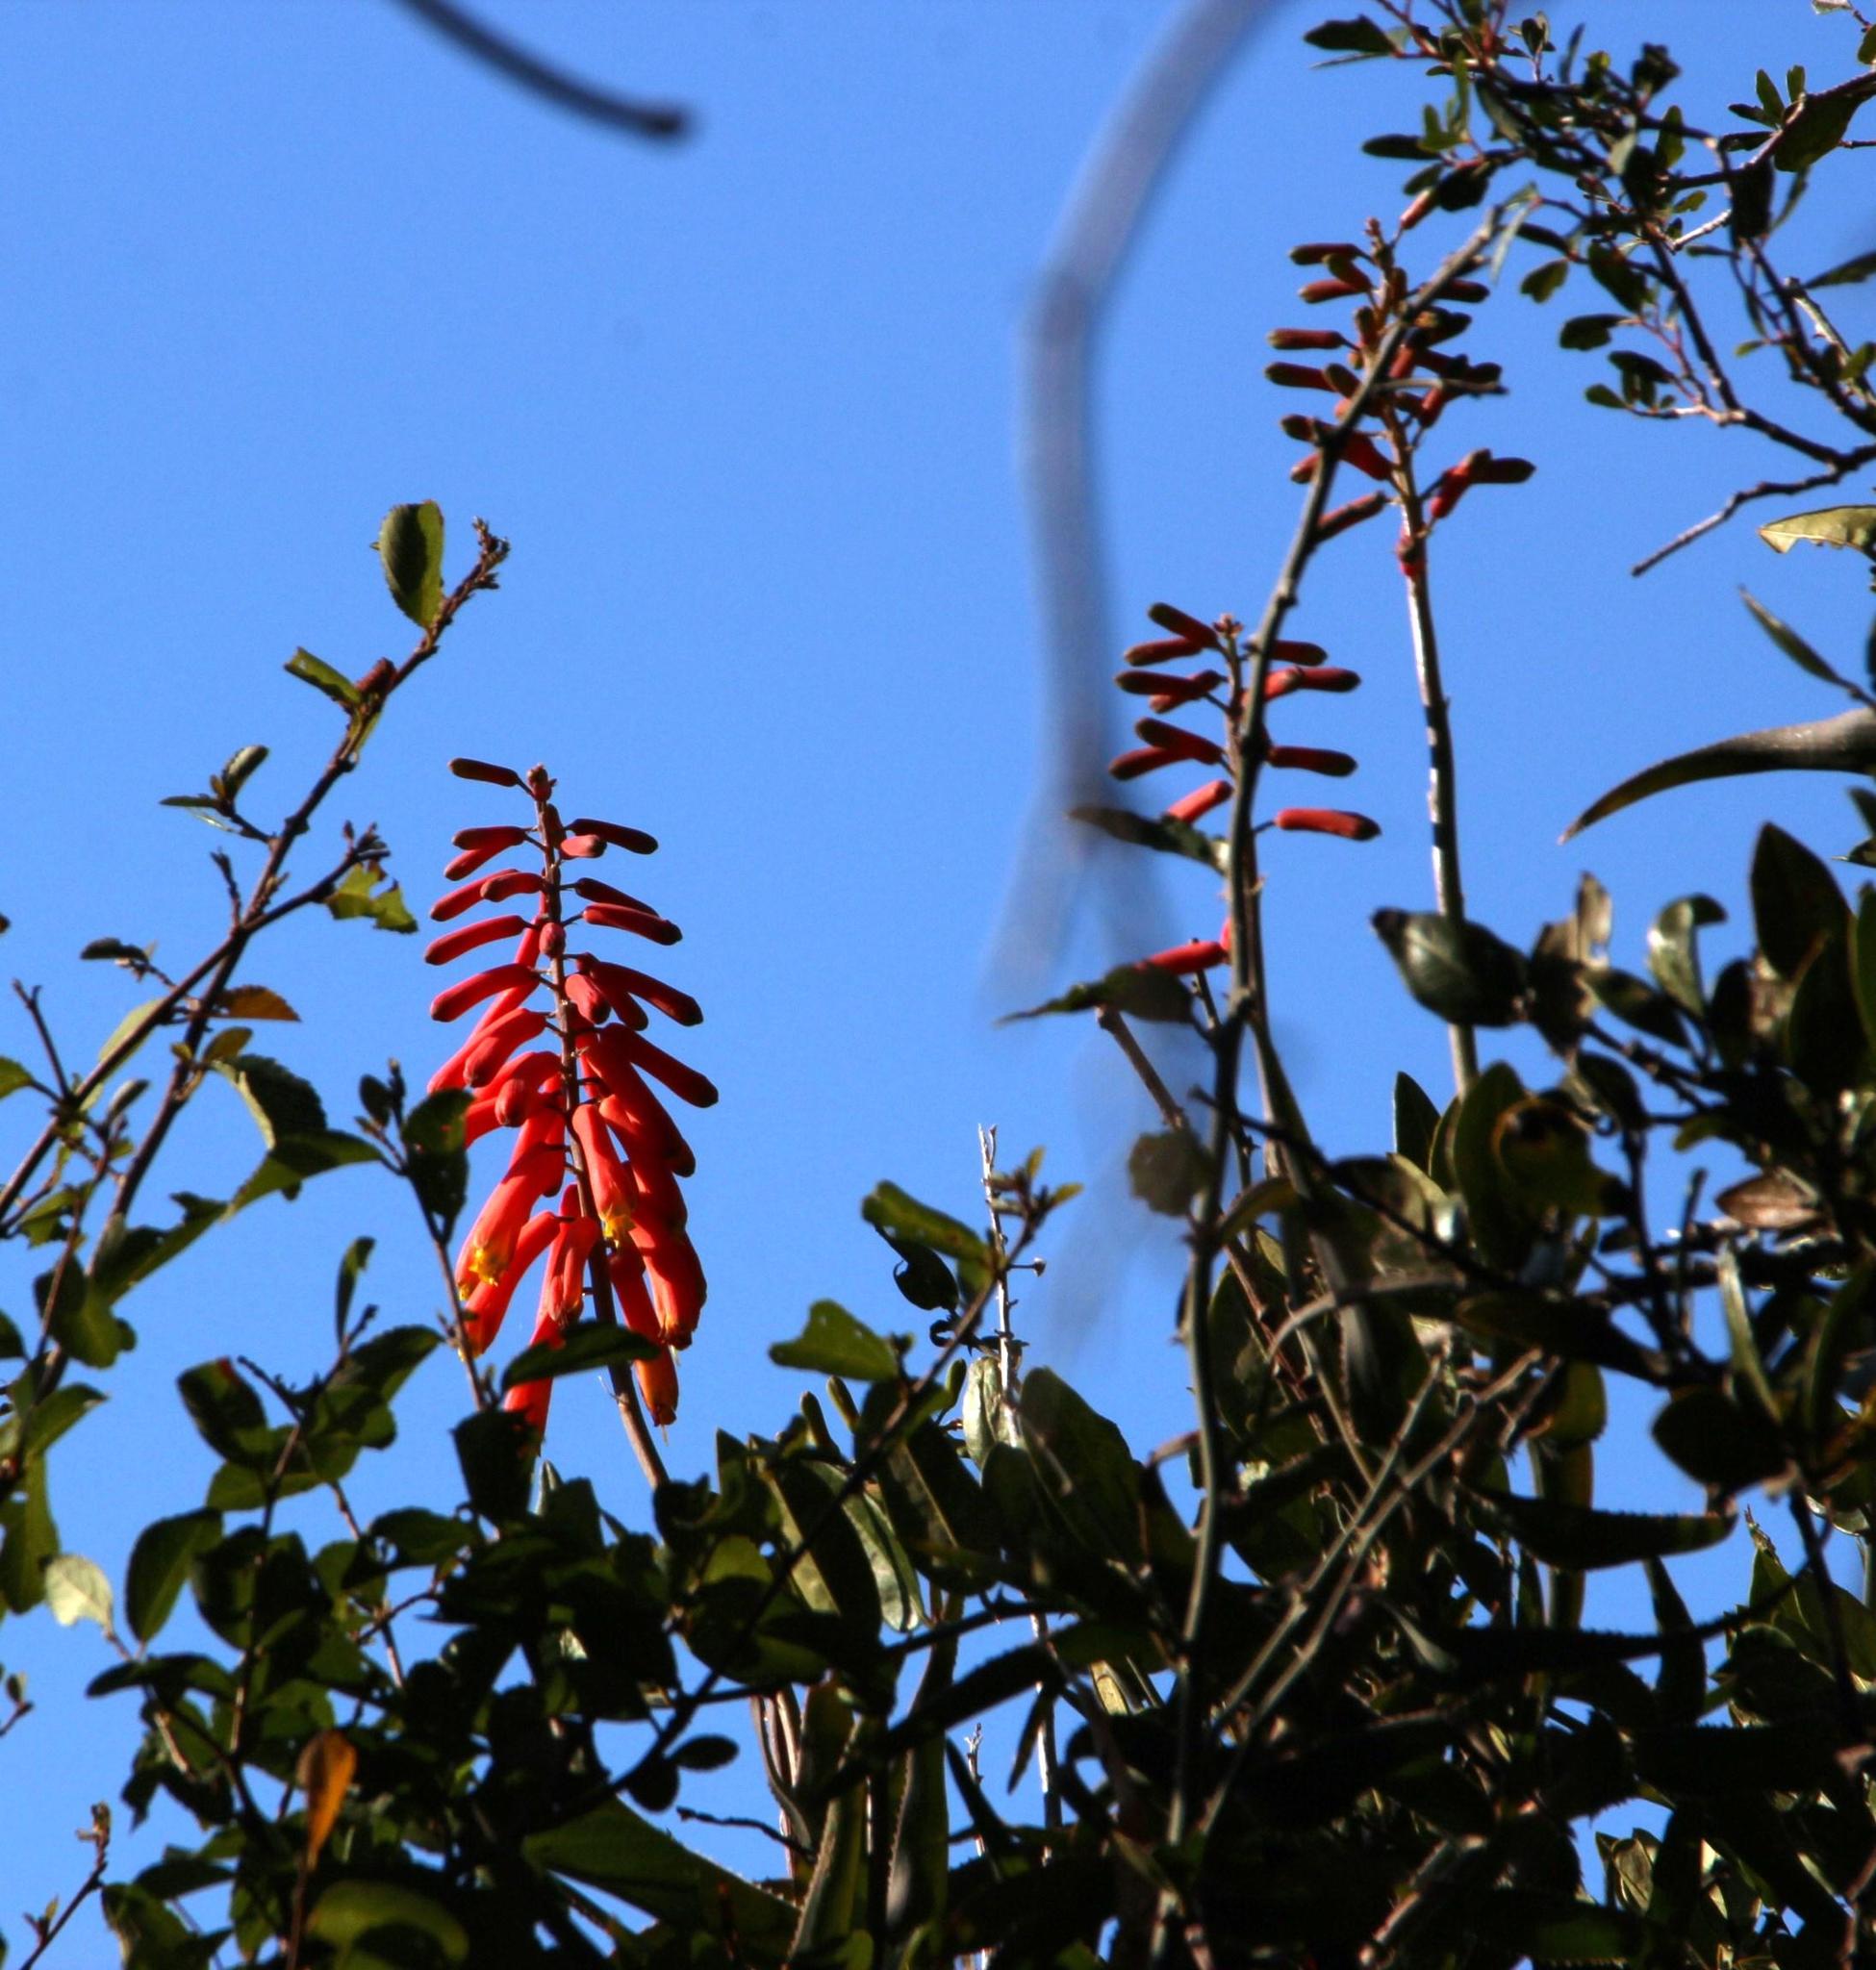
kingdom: Plantae
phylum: Tracheophyta
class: Liliopsida
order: Asparagales
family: Asphodelaceae
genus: Aloiampelos
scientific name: Aloiampelos ciliaris
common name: Climbing aloe
